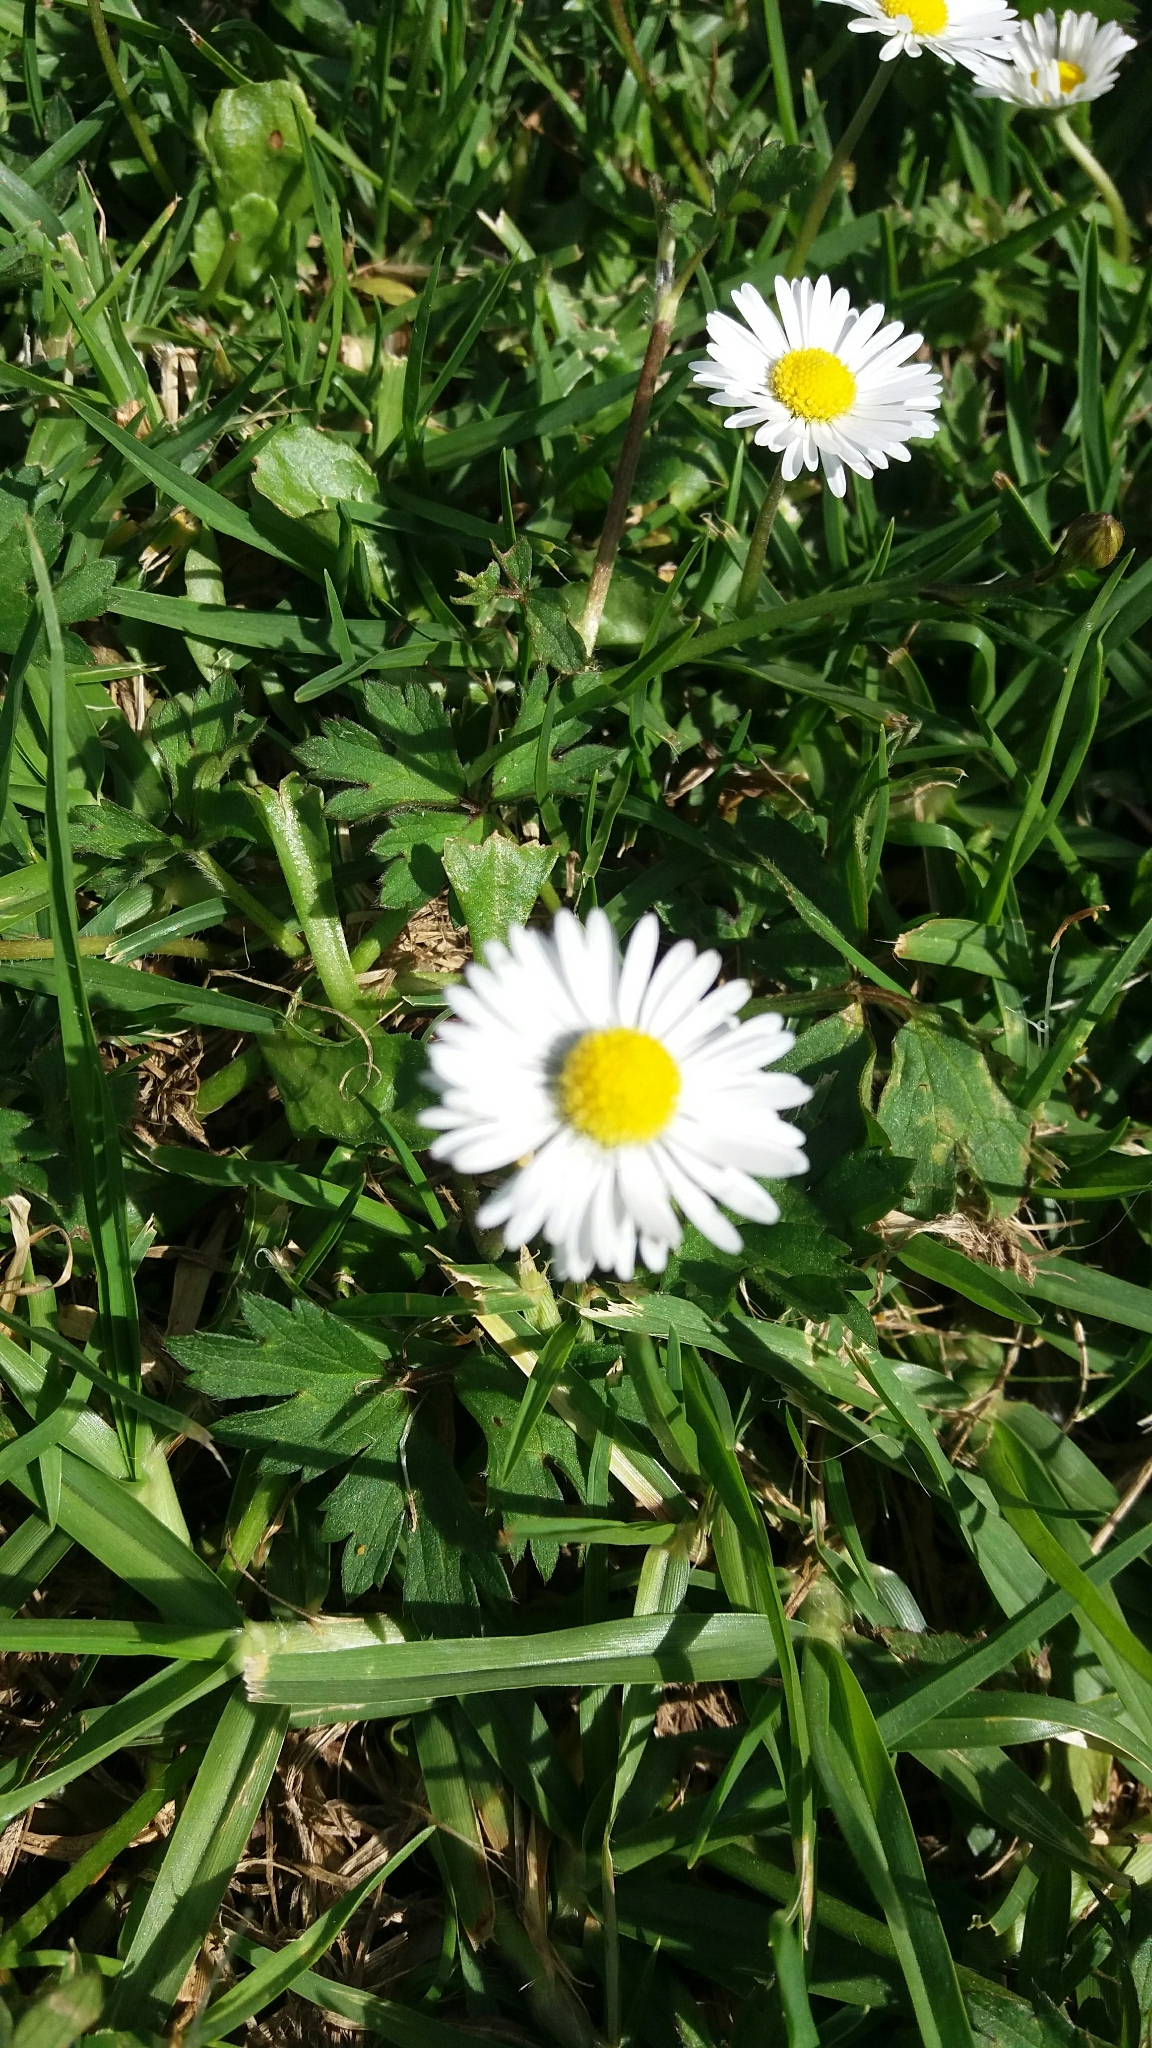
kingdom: Plantae
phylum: Tracheophyta
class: Magnoliopsida
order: Asterales
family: Asteraceae
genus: Bellis
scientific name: Bellis perennis
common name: Lawndaisy
